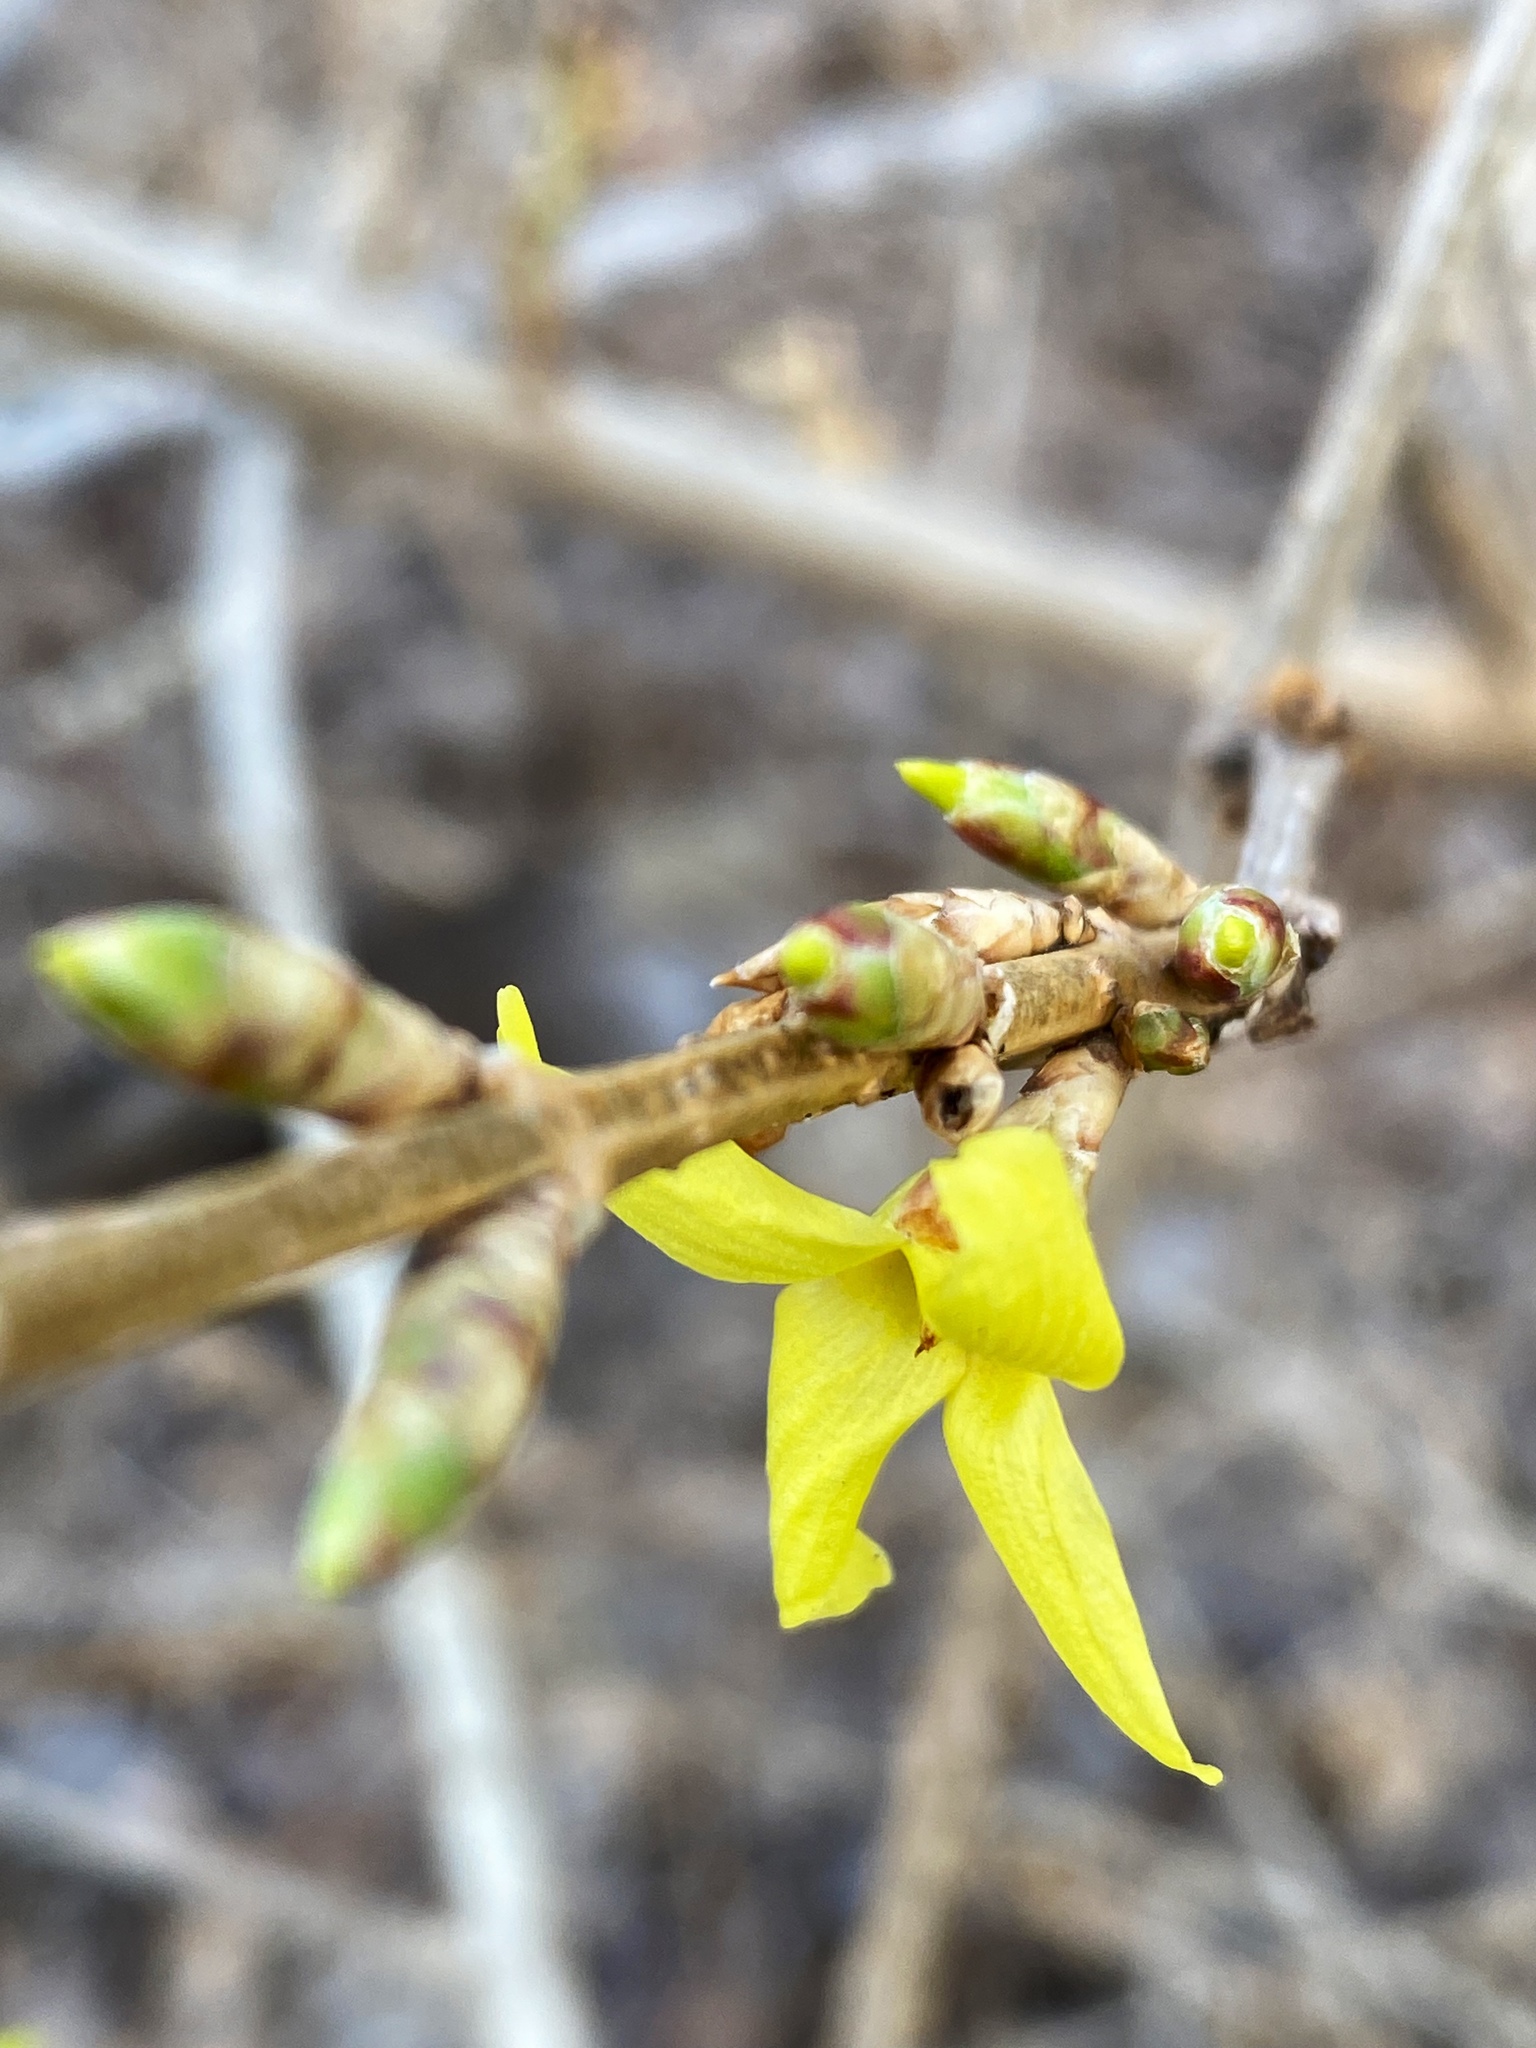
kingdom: Plantae
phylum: Tracheophyta
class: Magnoliopsida
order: Lamiales
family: Oleaceae
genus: Forsythia
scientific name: Forsythia
